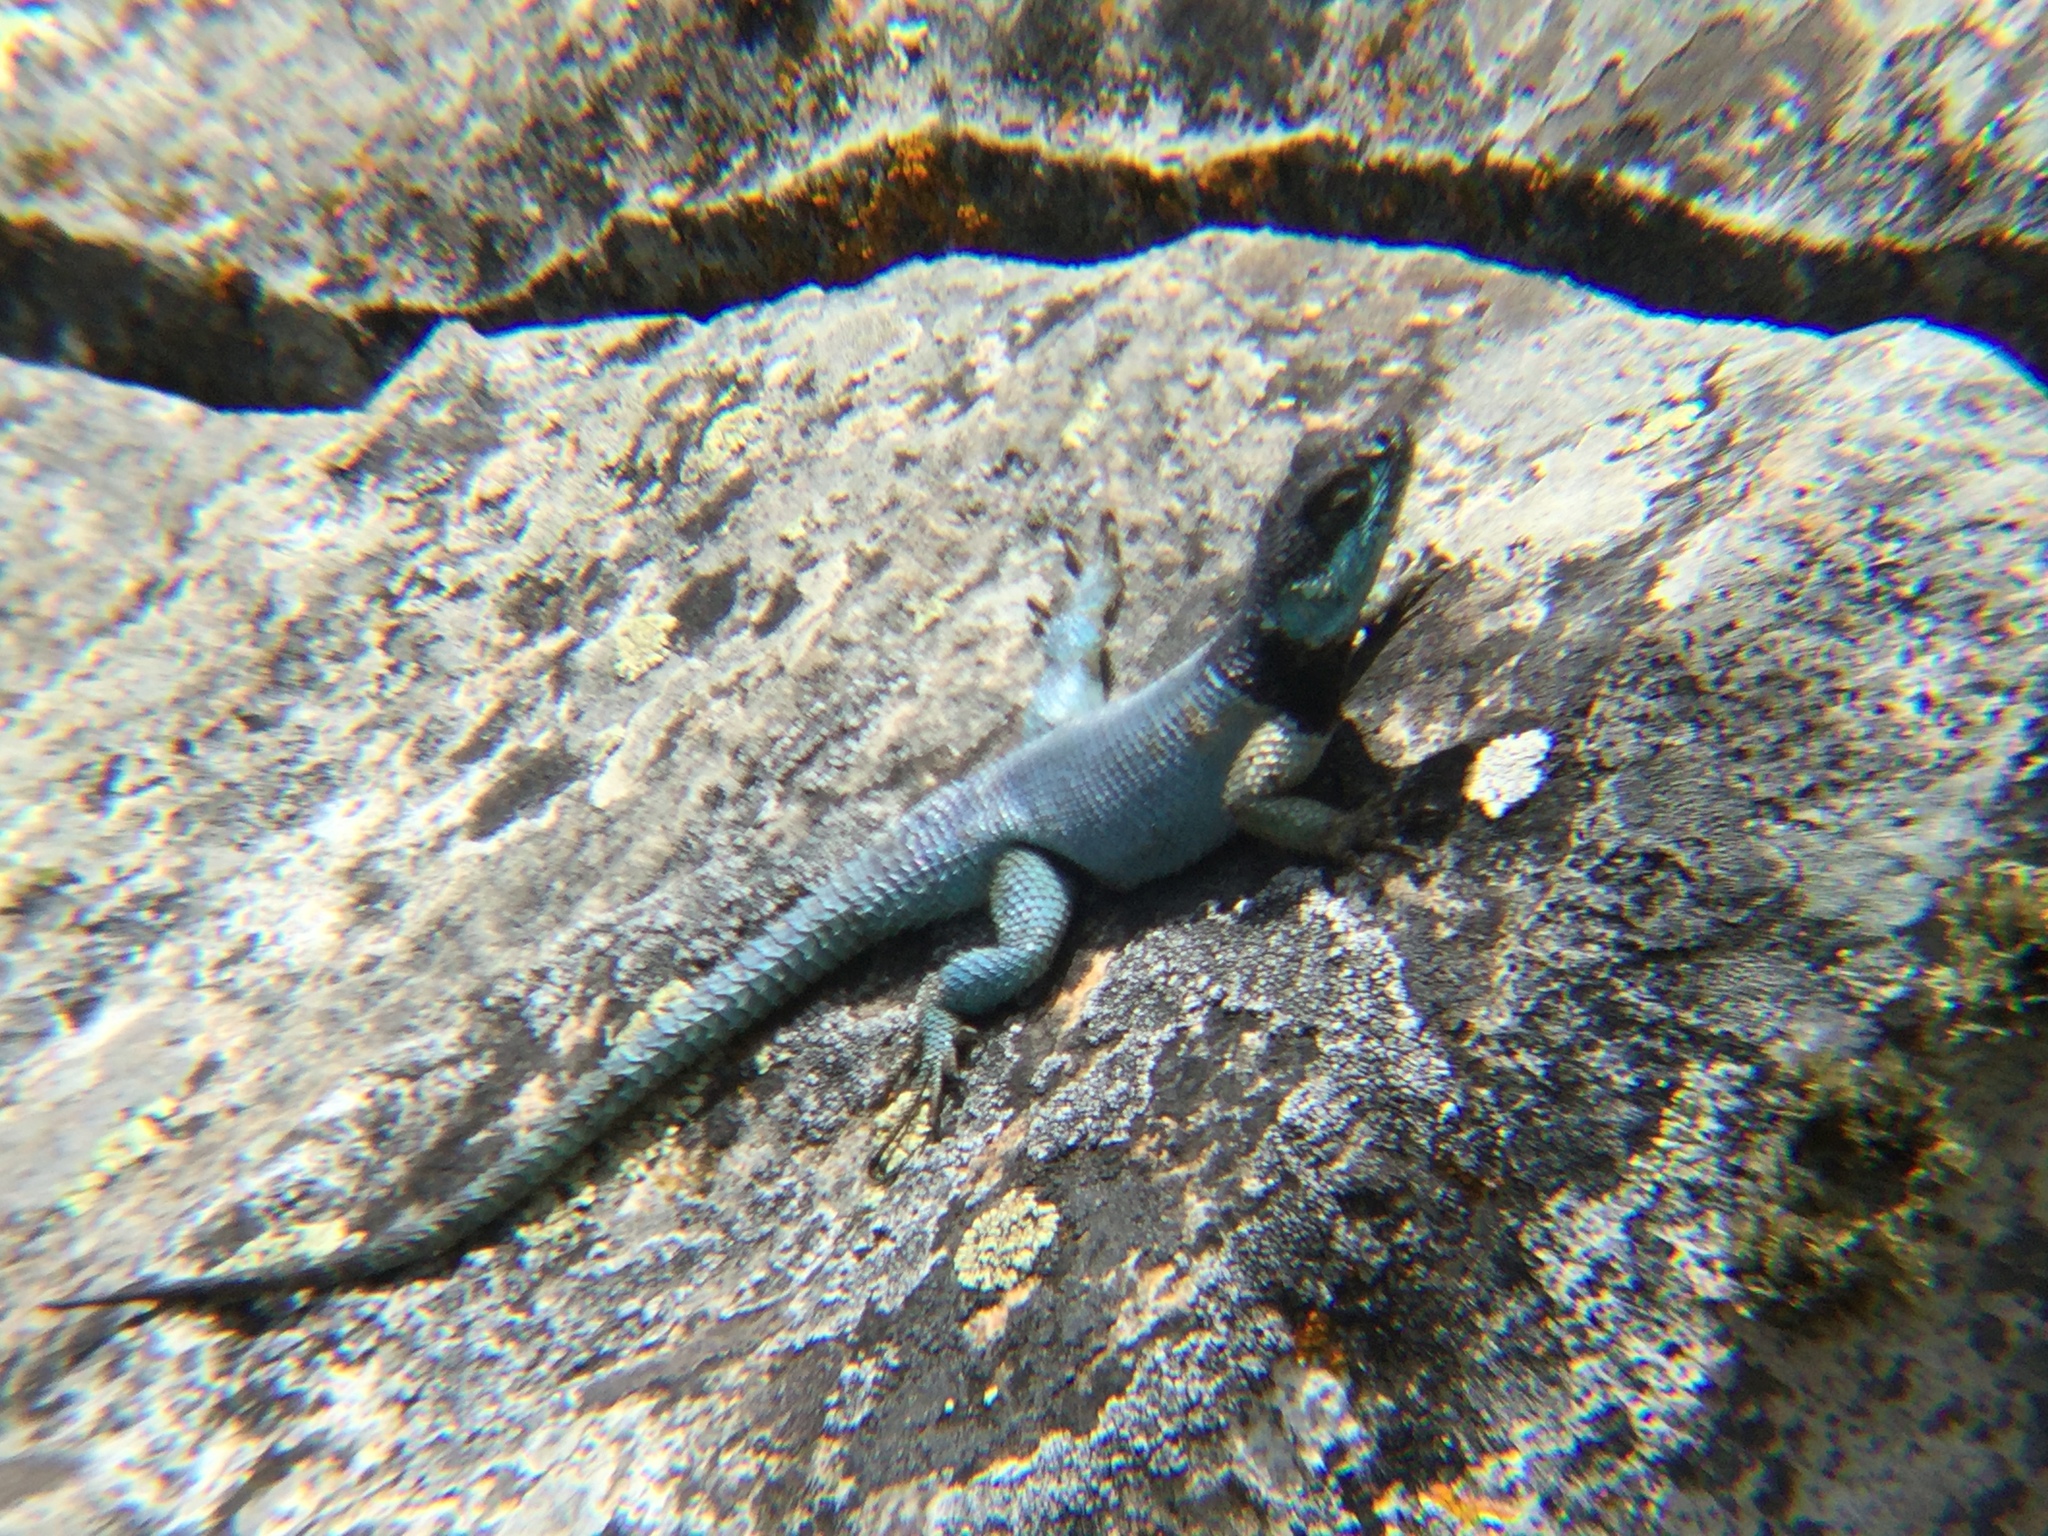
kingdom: Animalia
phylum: Chordata
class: Squamata
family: Phrynosomatidae
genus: Sceloporus
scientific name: Sceloporus minor
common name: Minor lizard
